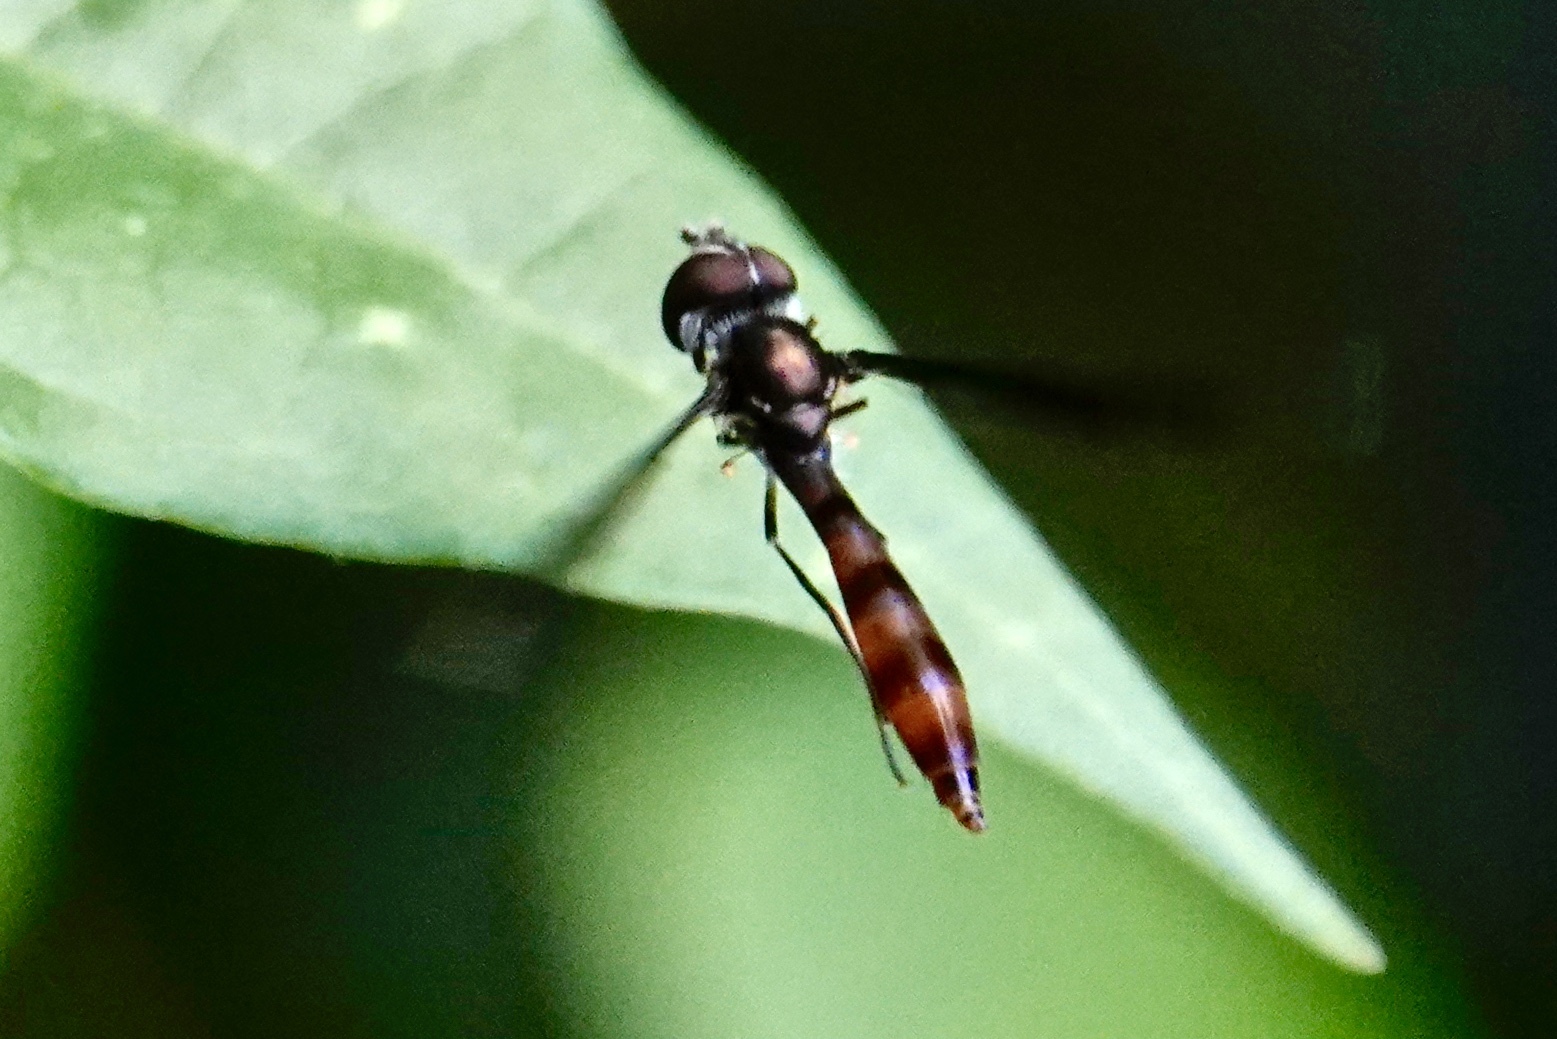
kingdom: Animalia
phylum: Arthropoda
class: Insecta
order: Diptera
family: Syrphidae
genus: Ocyptamus
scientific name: Ocyptamus fuscipennis
